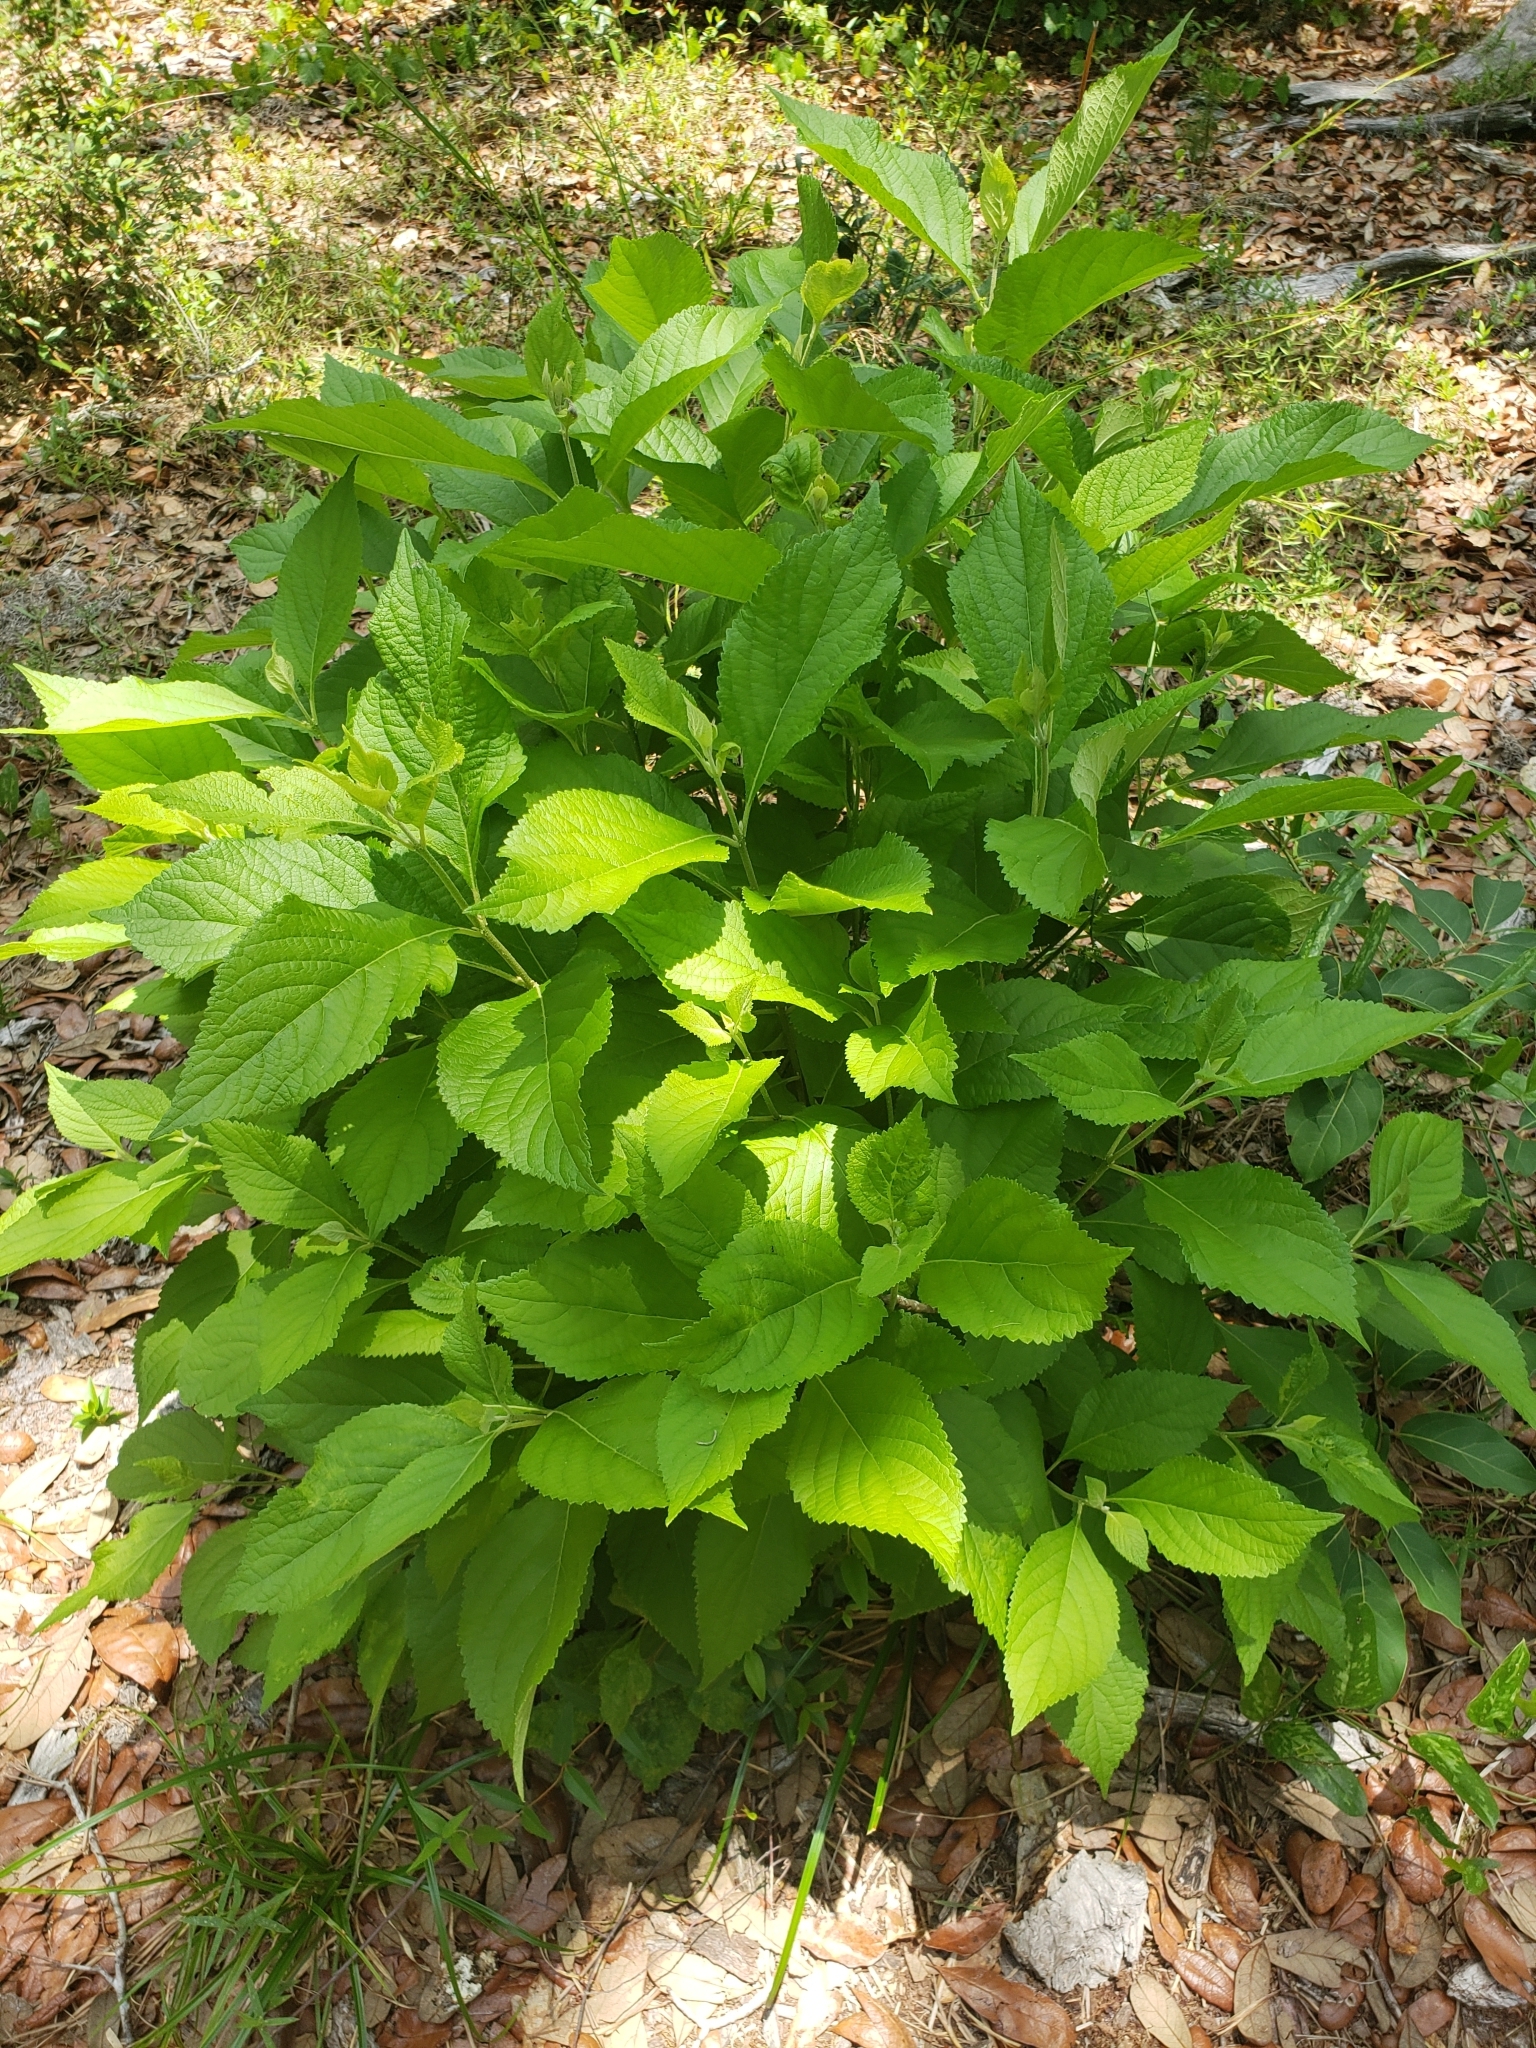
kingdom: Plantae
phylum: Tracheophyta
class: Magnoliopsida
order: Lamiales
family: Lamiaceae
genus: Callicarpa
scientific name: Callicarpa americana
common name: American beautyberry
